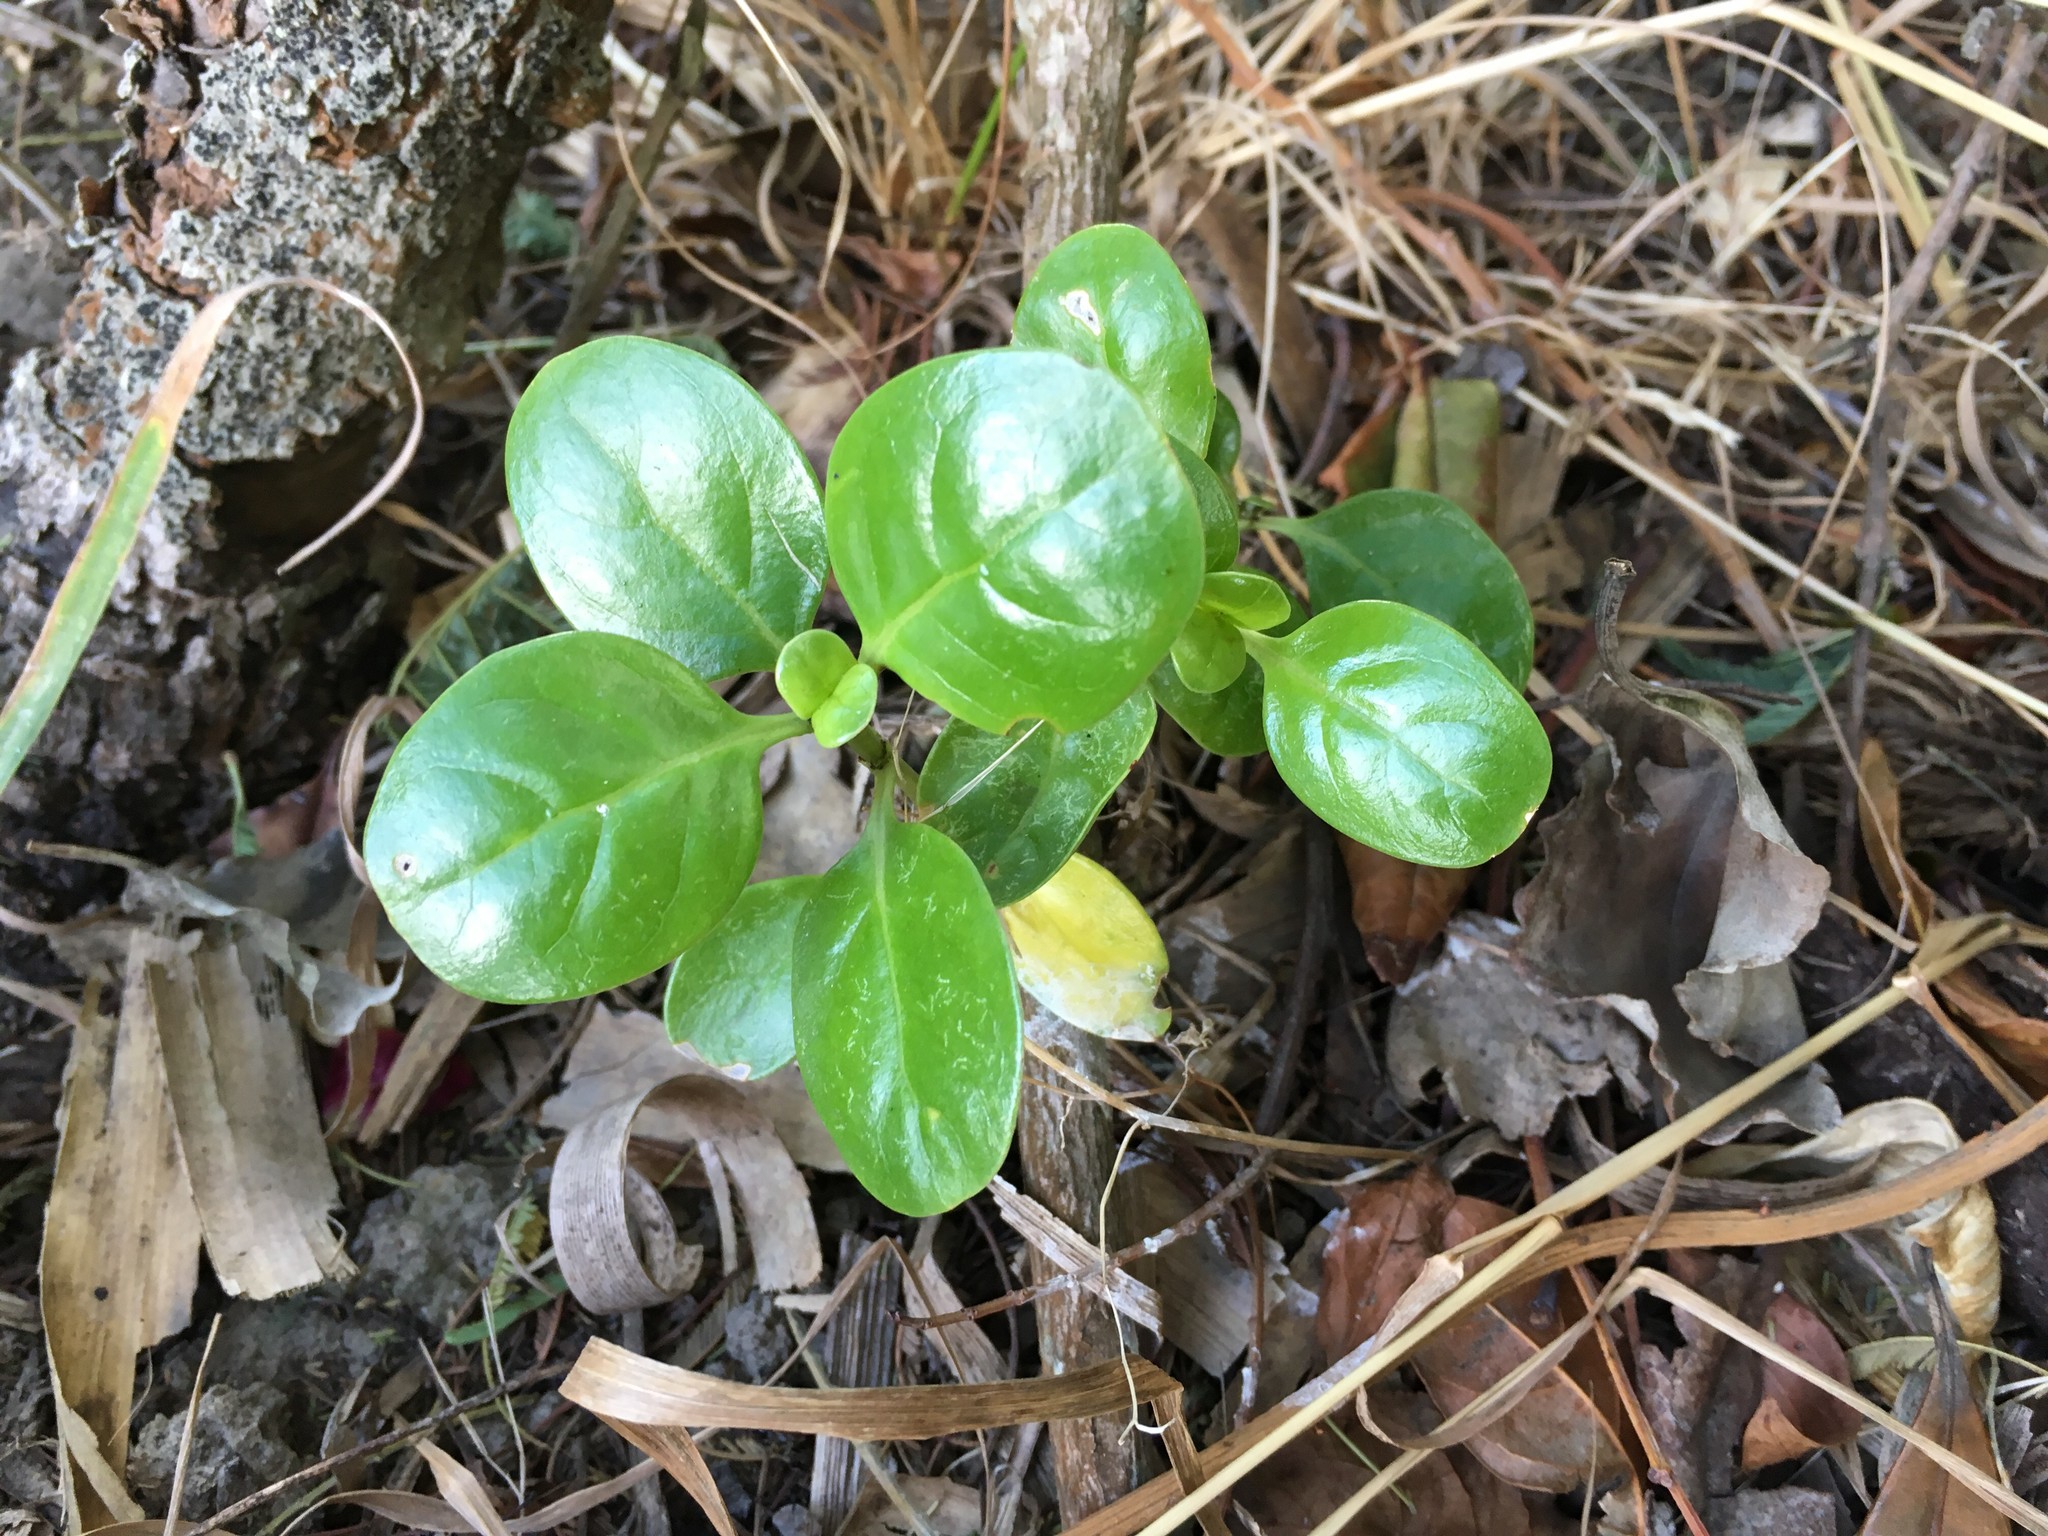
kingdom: Plantae
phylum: Tracheophyta
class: Magnoliopsida
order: Gentianales
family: Rubiaceae
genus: Coprosma
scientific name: Coprosma repens
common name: Tree bedstraw
